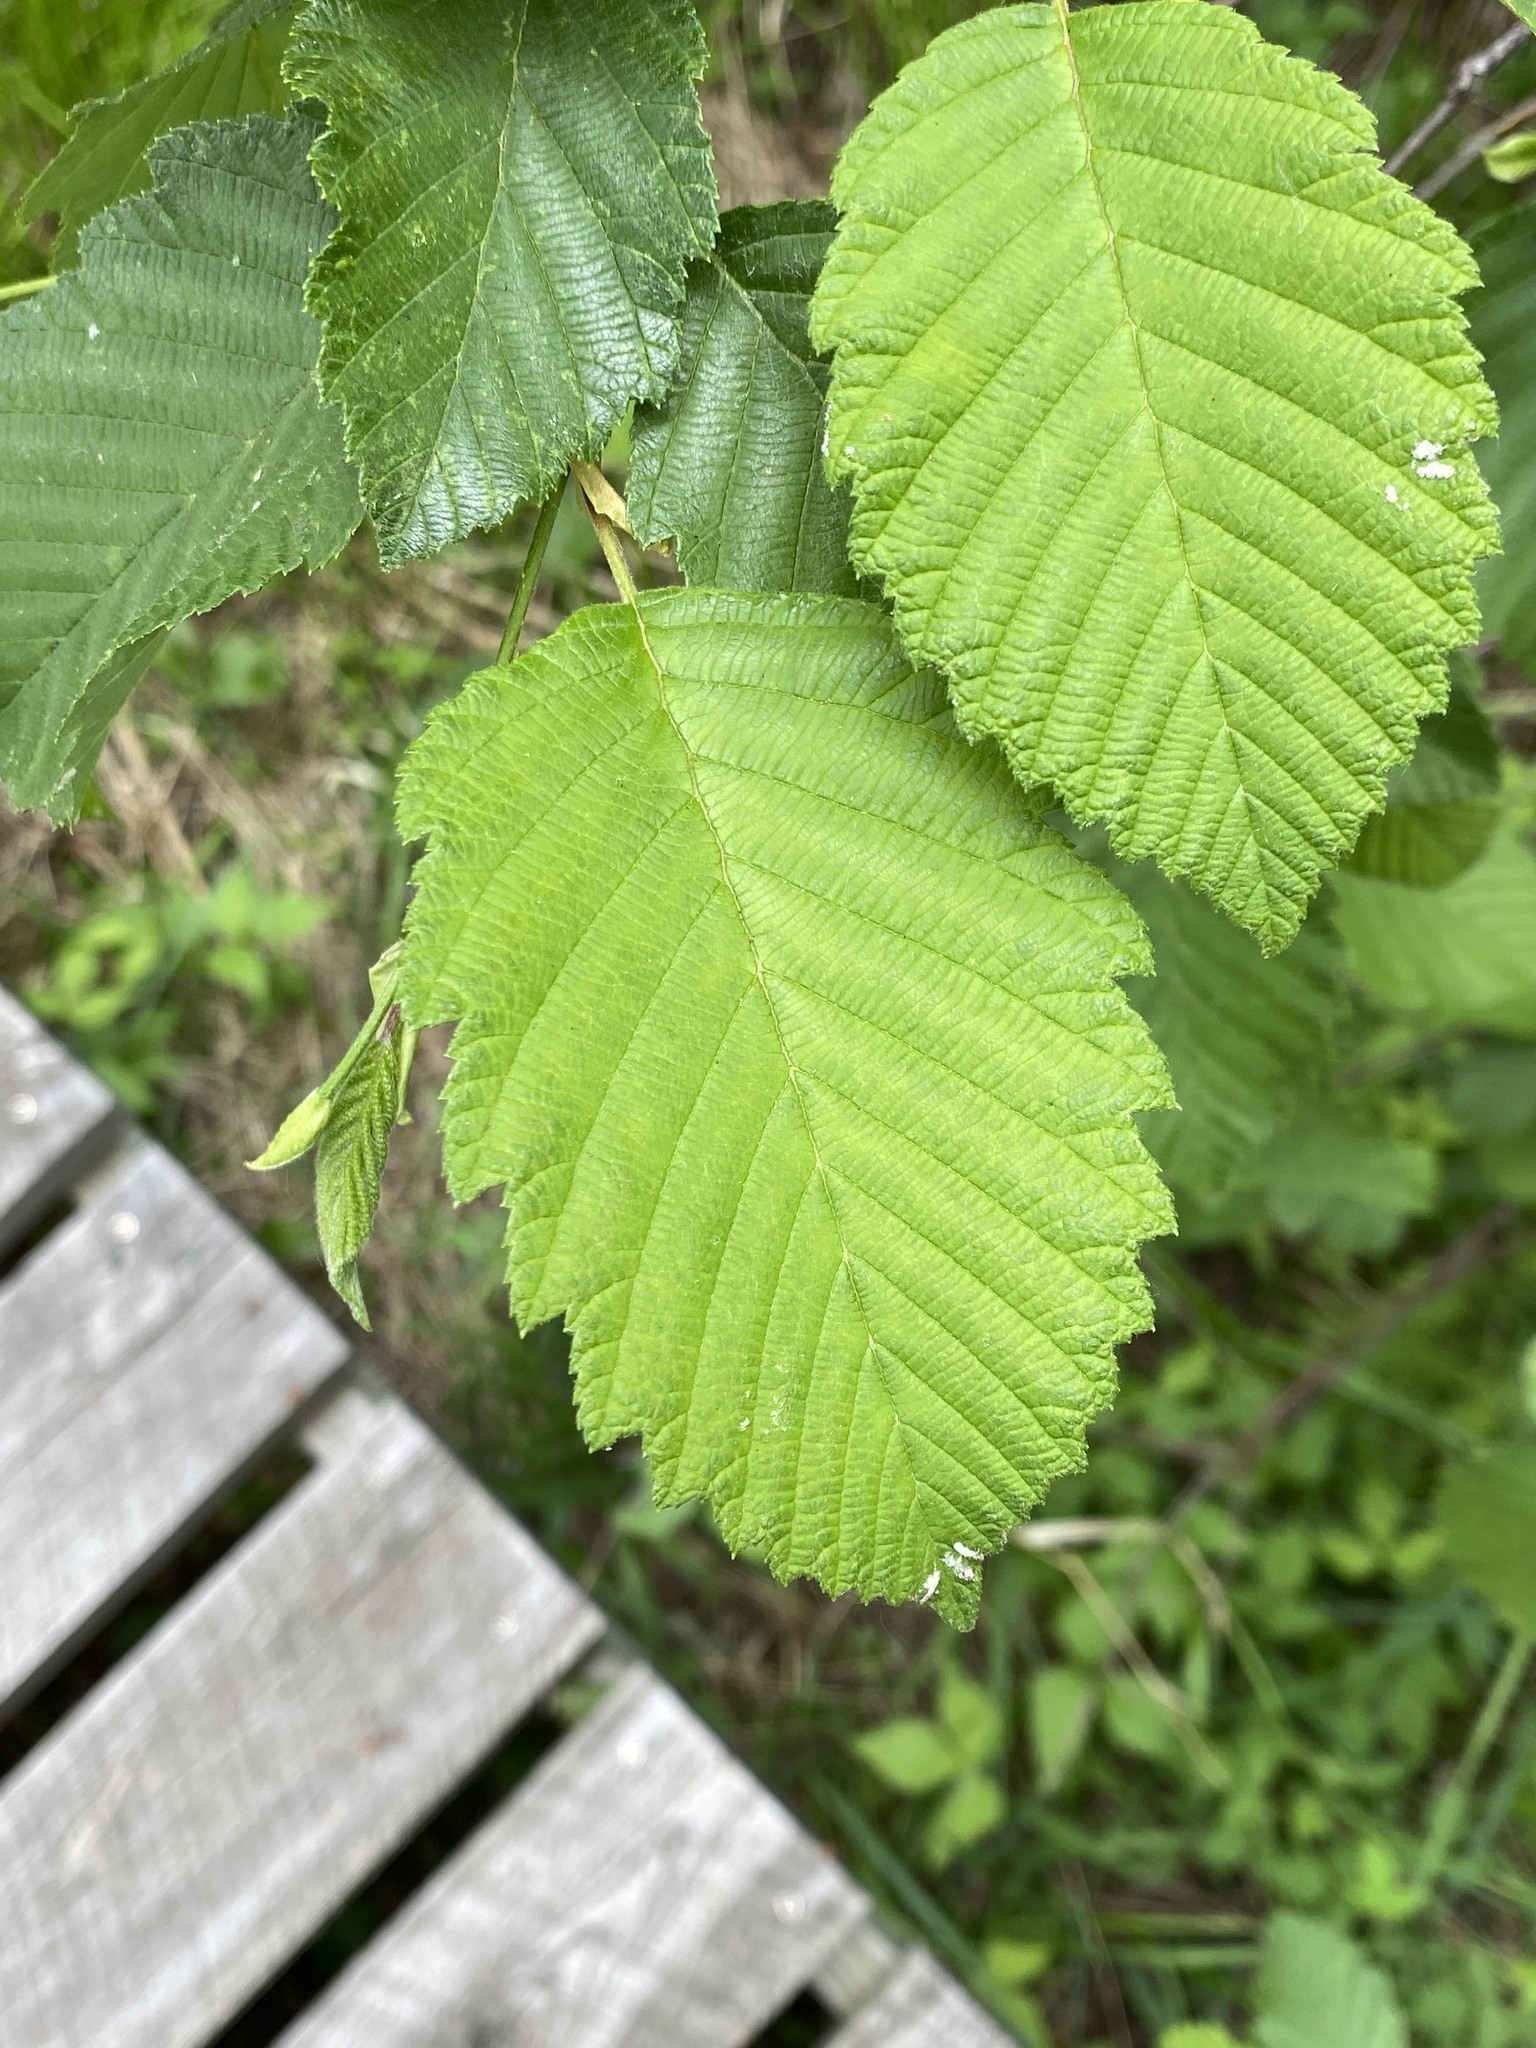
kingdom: Plantae
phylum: Tracheophyta
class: Magnoliopsida
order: Fagales
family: Betulaceae
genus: Alnus
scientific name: Alnus incana
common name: Grey alder
